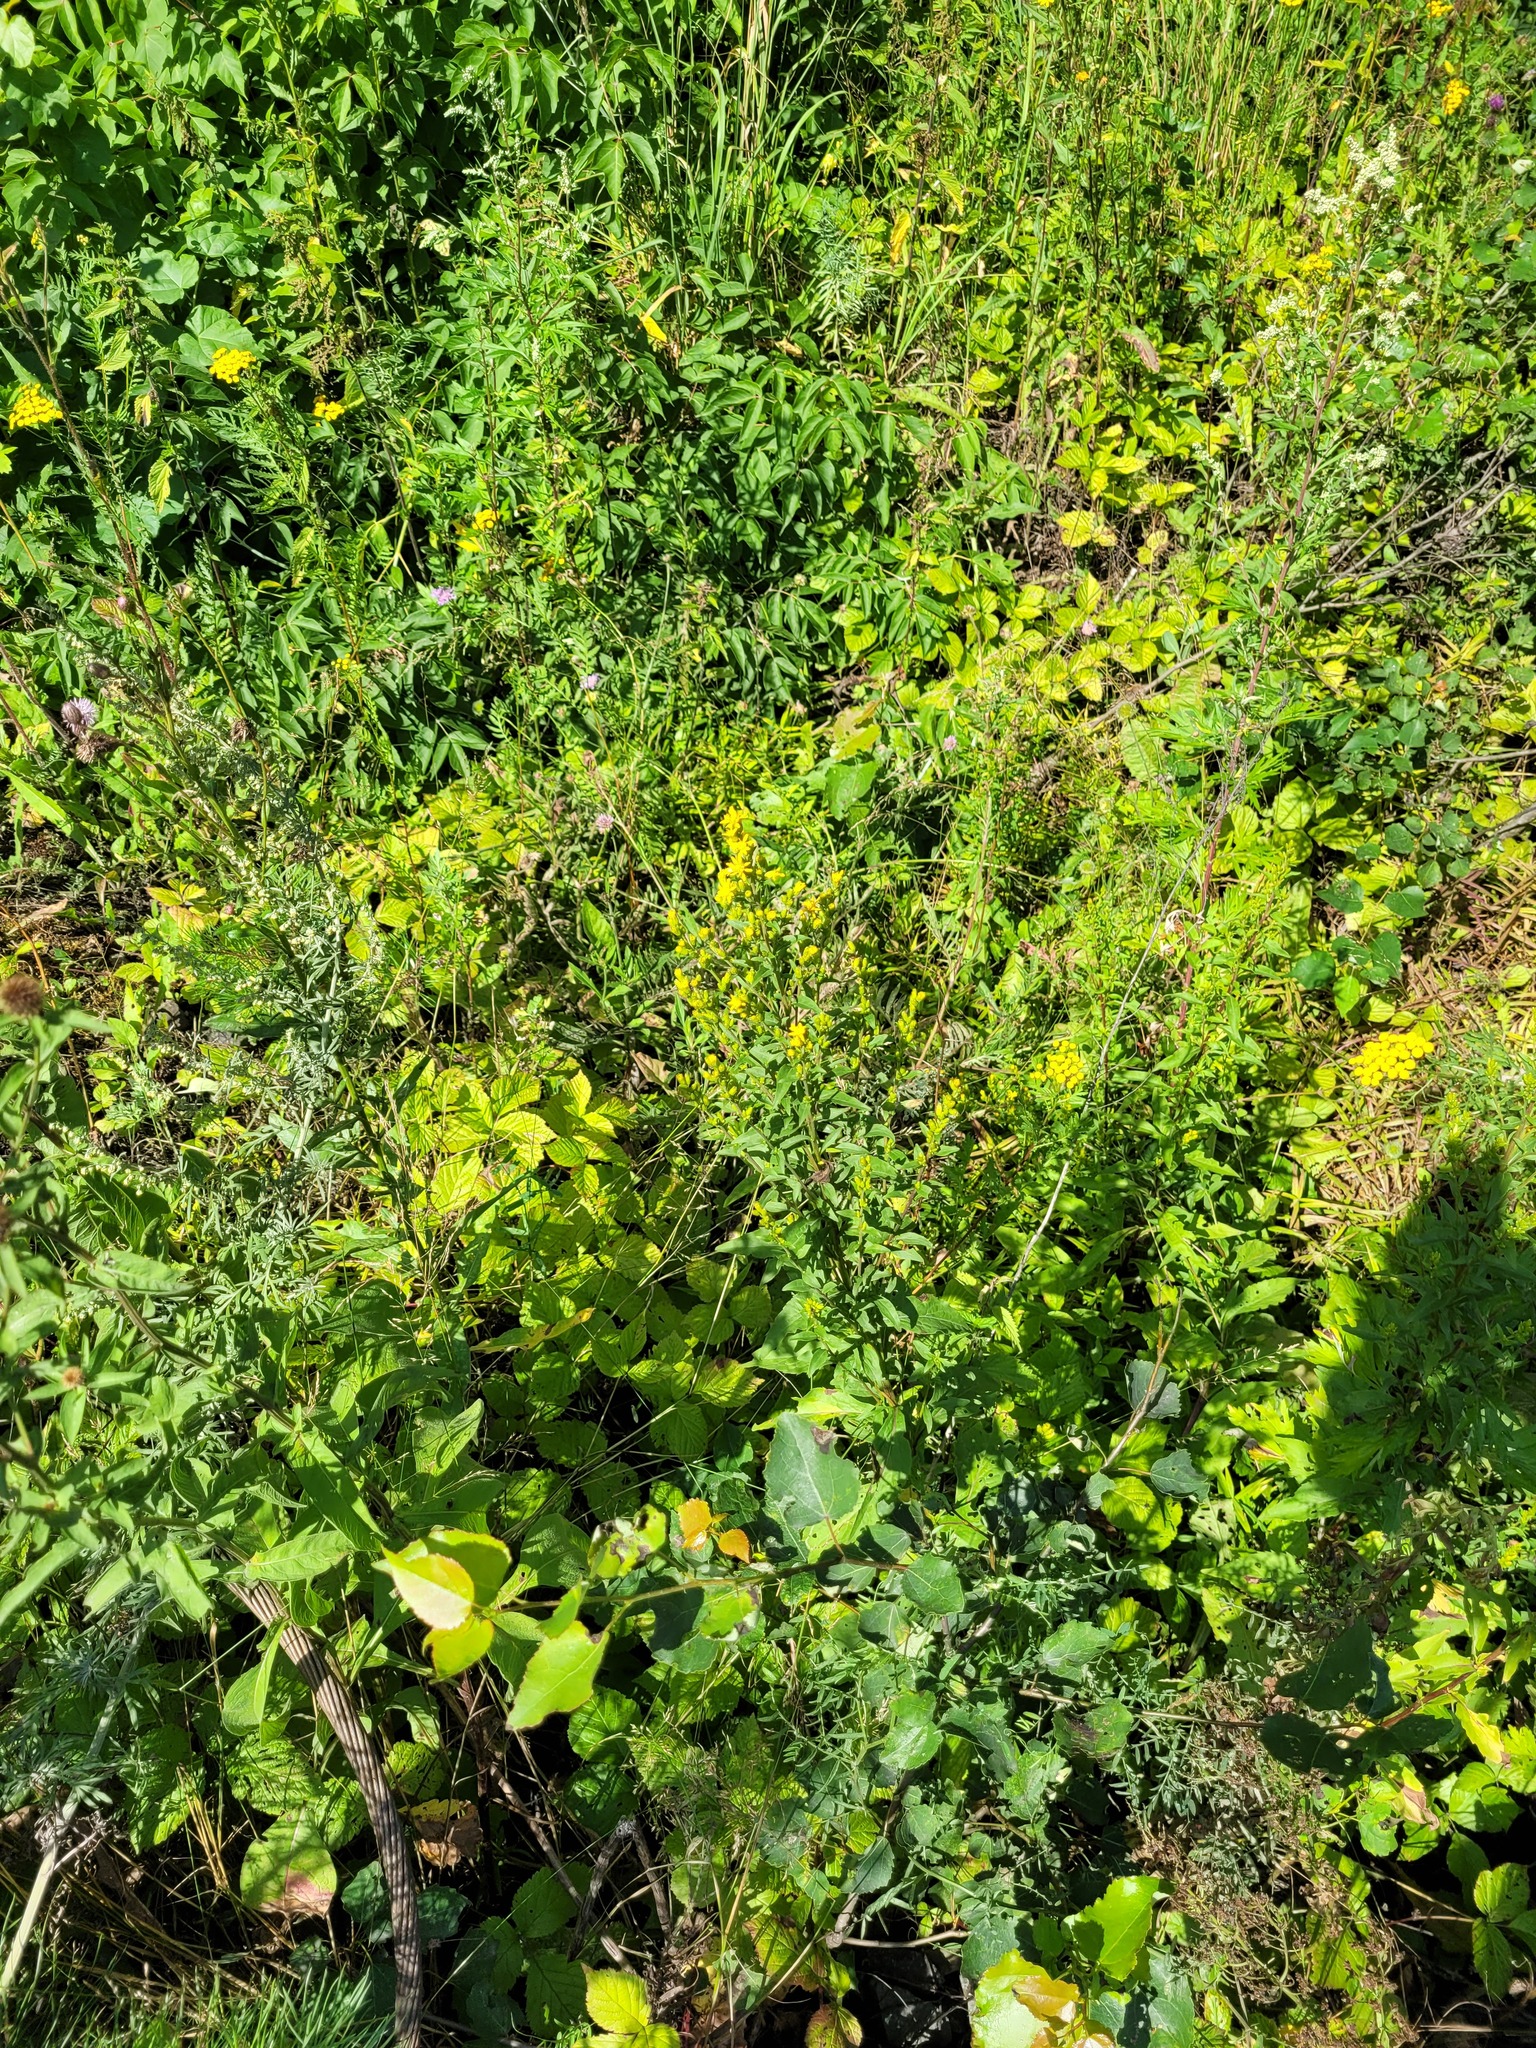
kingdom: Plantae
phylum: Tracheophyta
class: Magnoliopsida
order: Asterales
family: Asteraceae
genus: Solidago
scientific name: Solidago virgaurea
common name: Goldenrod
